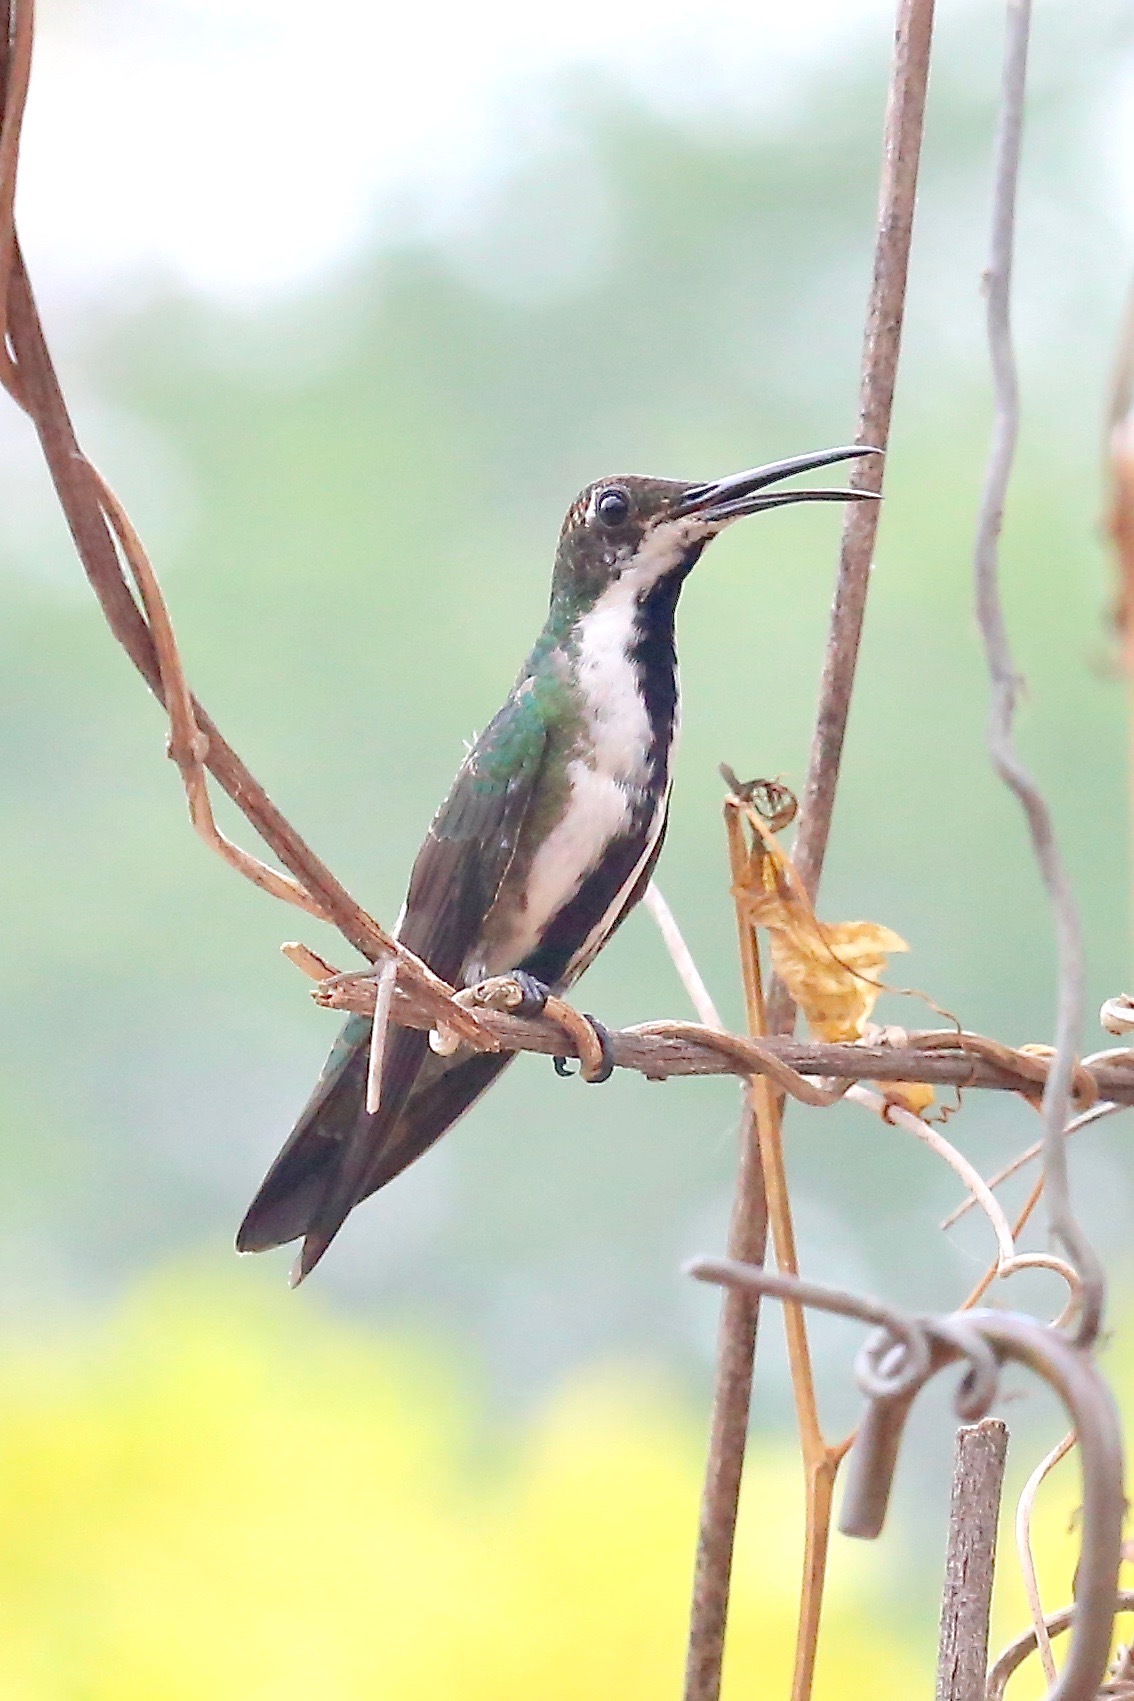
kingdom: Animalia
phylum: Chordata
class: Aves
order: Apodiformes
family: Trochilidae
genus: Anthracothorax
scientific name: Anthracothorax nigricollis
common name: Black-throated mango
